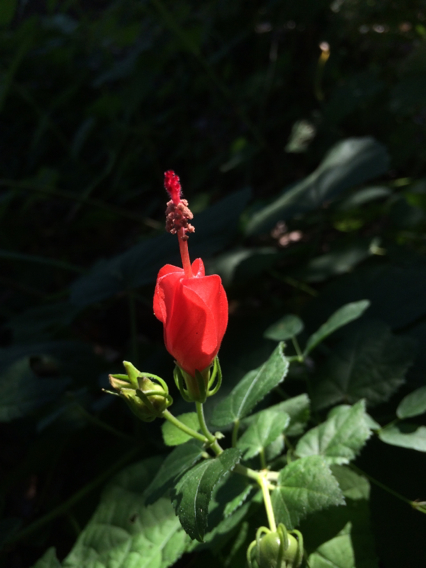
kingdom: Plantae
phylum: Tracheophyta
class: Magnoliopsida
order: Malvales
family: Malvaceae
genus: Malvaviscus
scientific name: Malvaviscus arboreus
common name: Wax mallow
